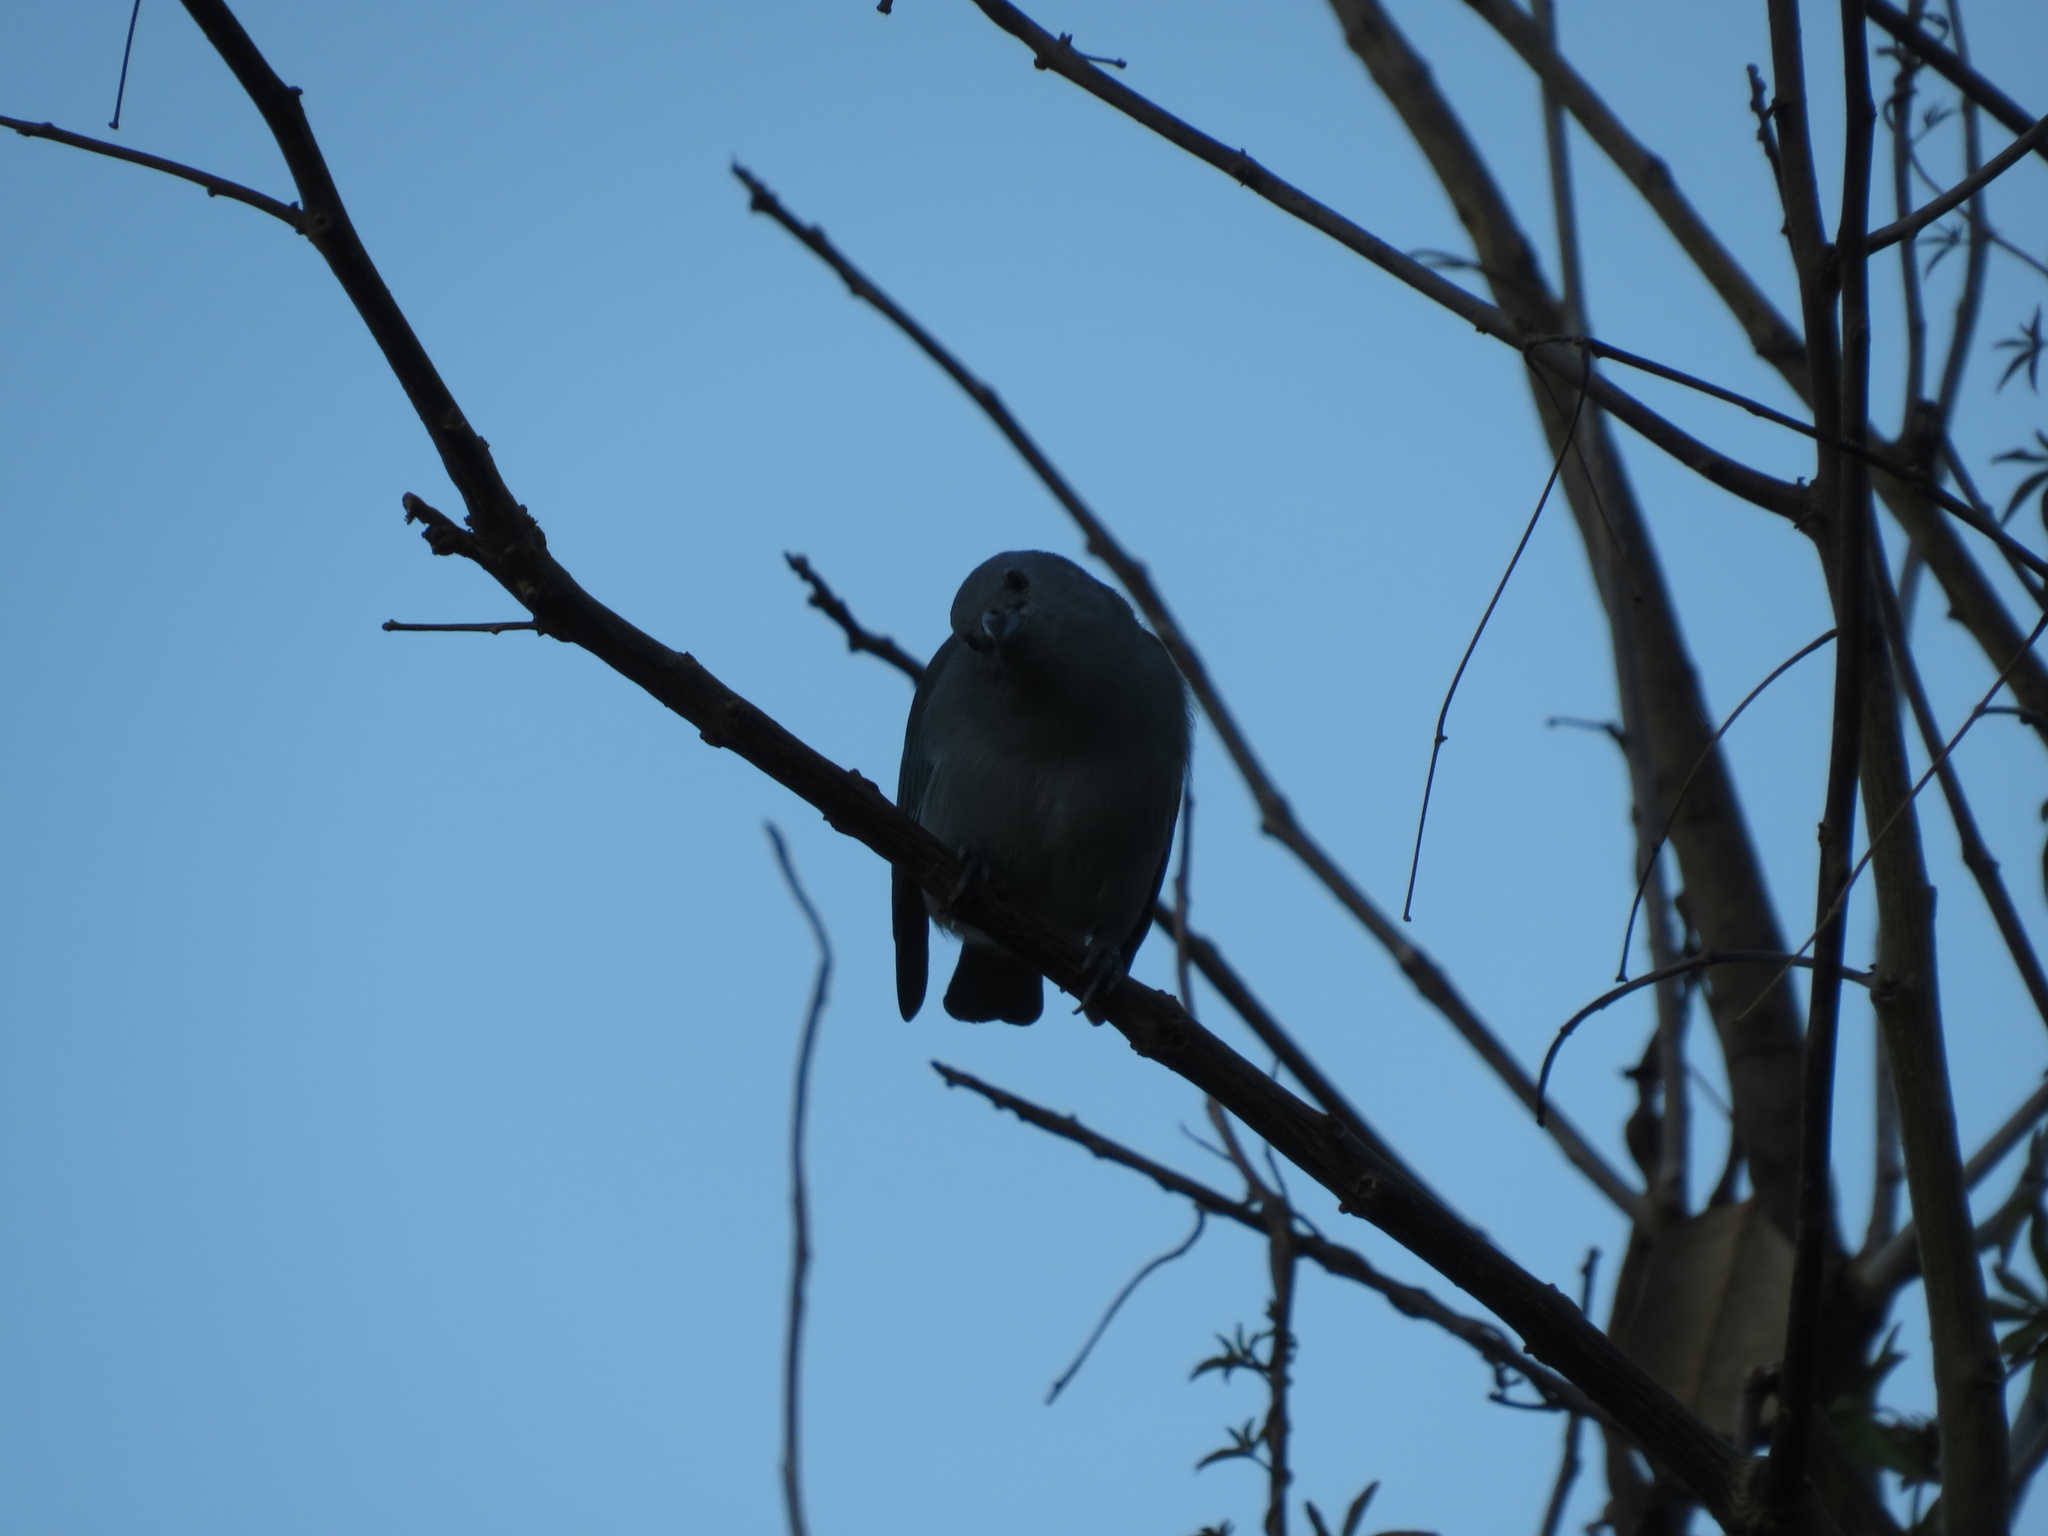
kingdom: Animalia
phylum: Chordata
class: Aves
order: Passeriformes
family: Thraupidae
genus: Thraupis
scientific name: Thraupis sayaca
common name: Sayaca tanager
